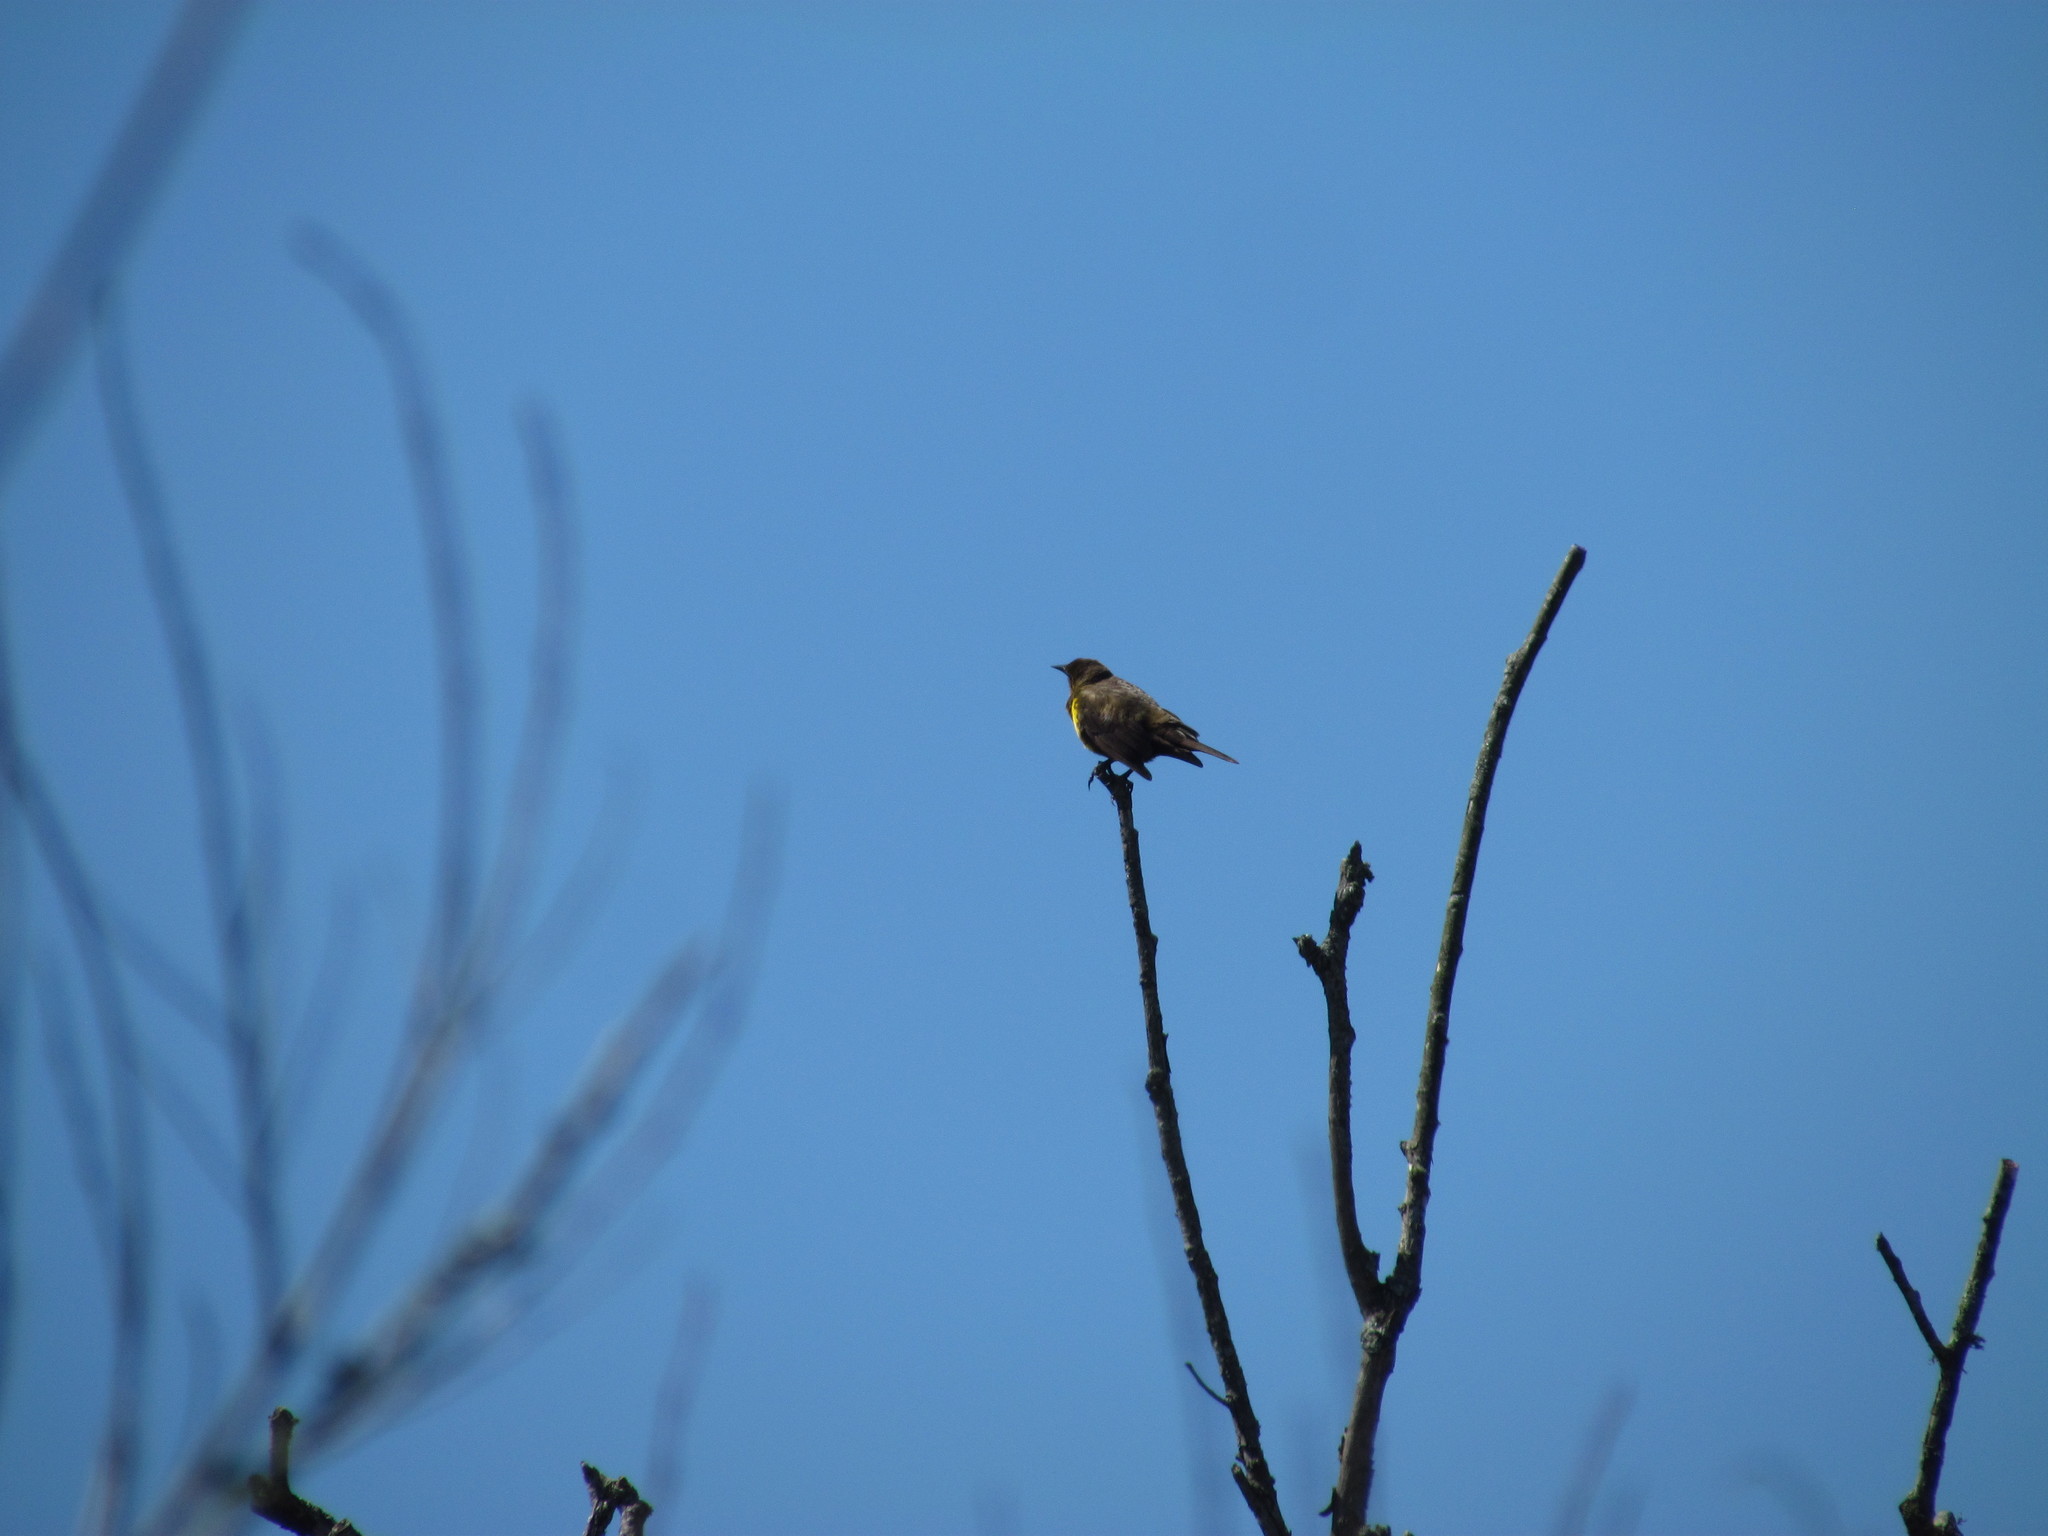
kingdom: Animalia
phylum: Chordata
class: Aves
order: Passeriformes
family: Icteridae
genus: Pseudoleistes
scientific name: Pseudoleistes virescens
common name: Brown-and-yellow marshbird
